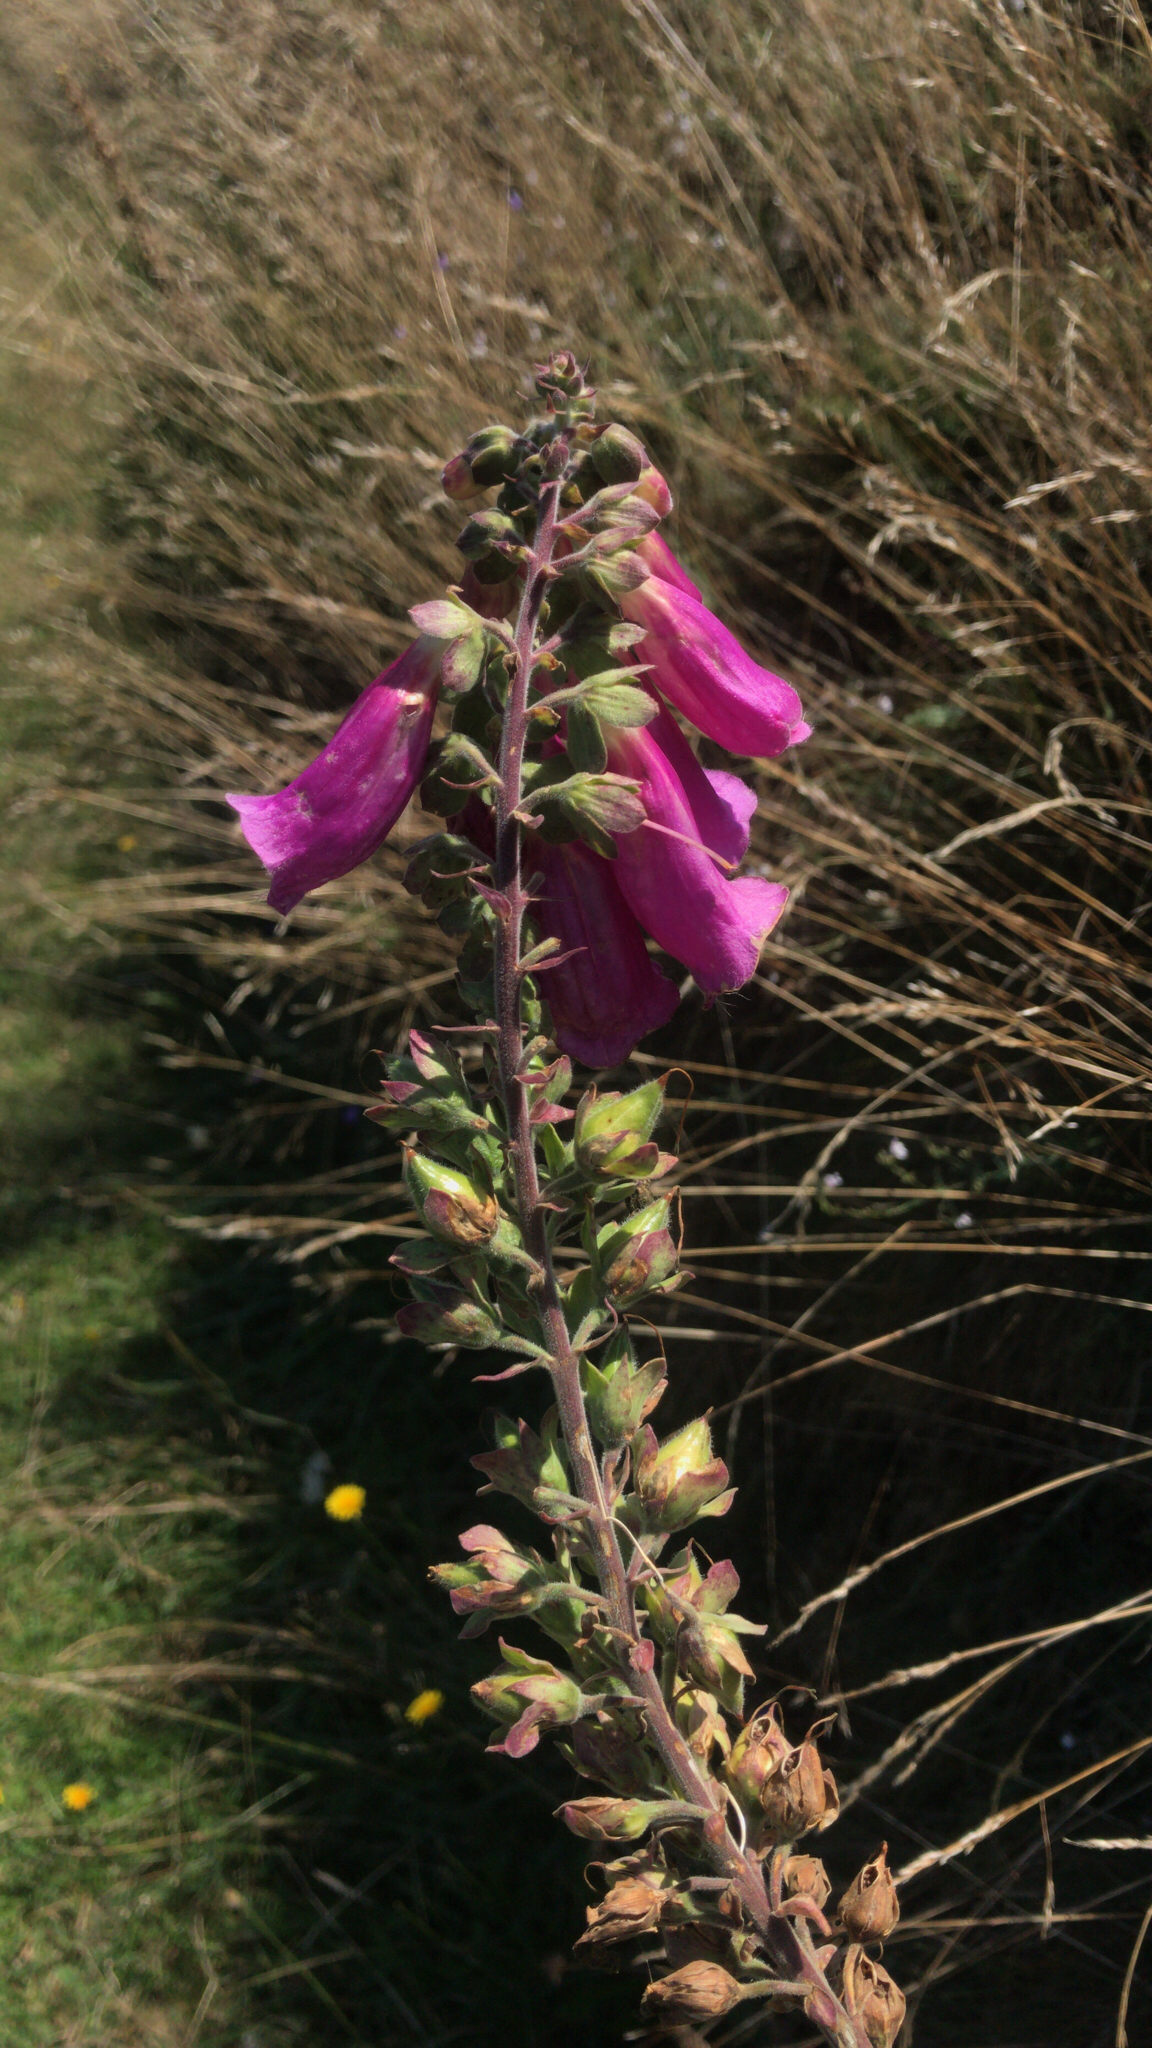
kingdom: Plantae
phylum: Tracheophyta
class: Magnoliopsida
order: Lamiales
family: Plantaginaceae
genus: Digitalis
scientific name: Digitalis purpurea
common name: Foxglove
